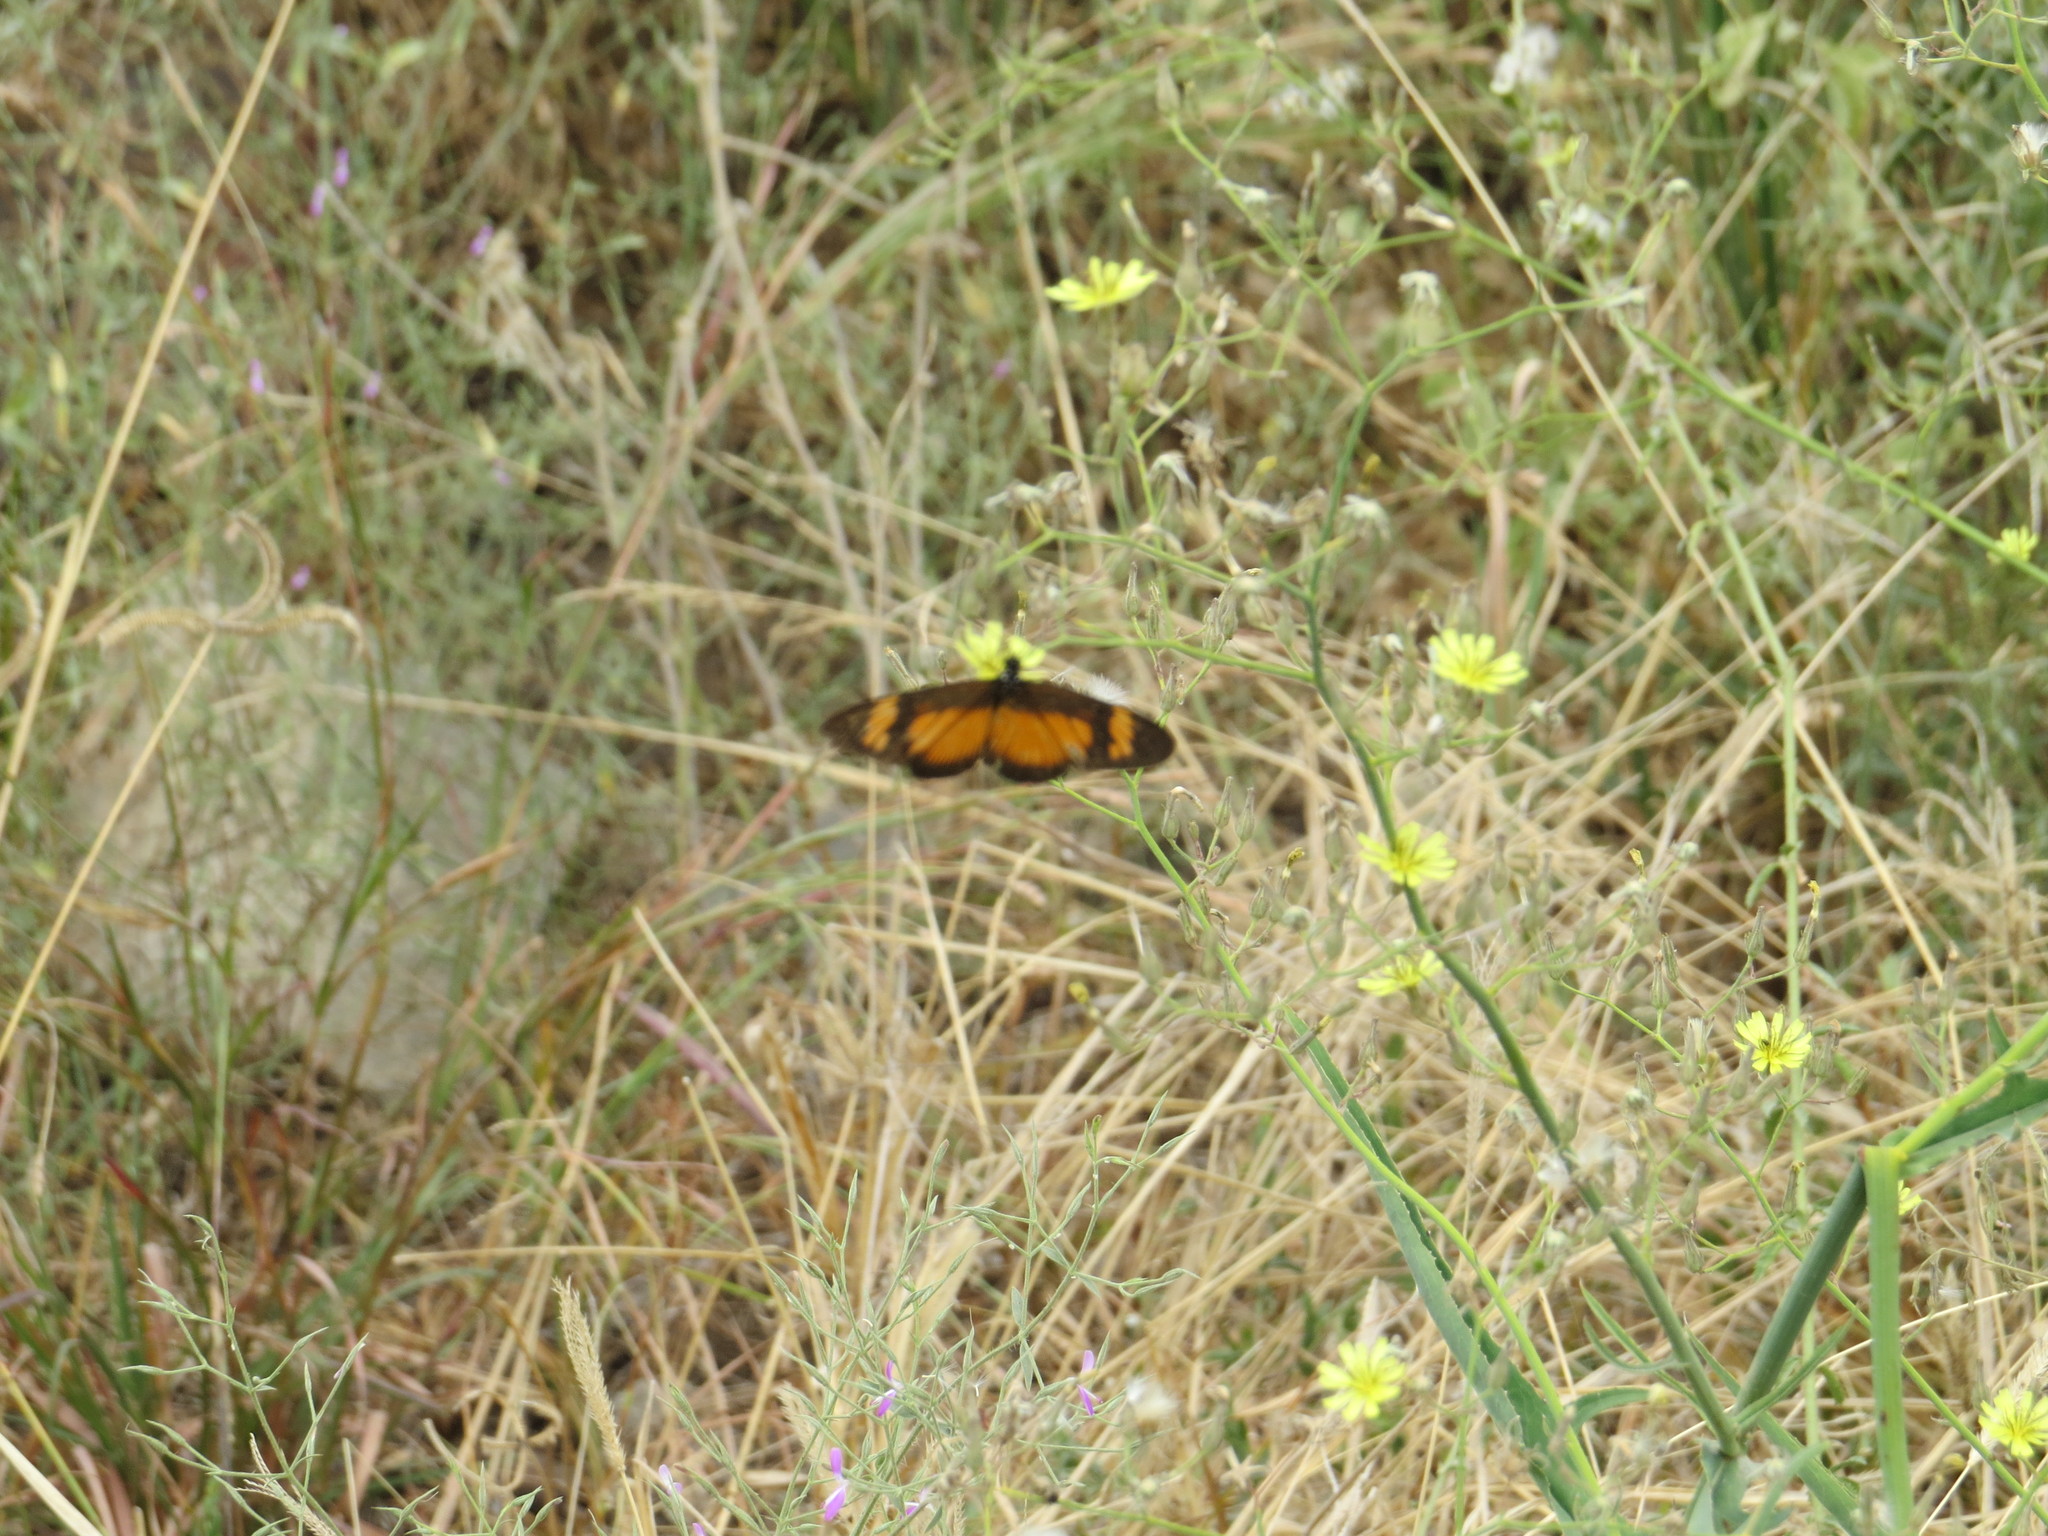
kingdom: Animalia
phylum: Arthropoda
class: Insecta
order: Lepidoptera
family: Nymphalidae
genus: Acraea
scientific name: Acraea Telchinia acerata
